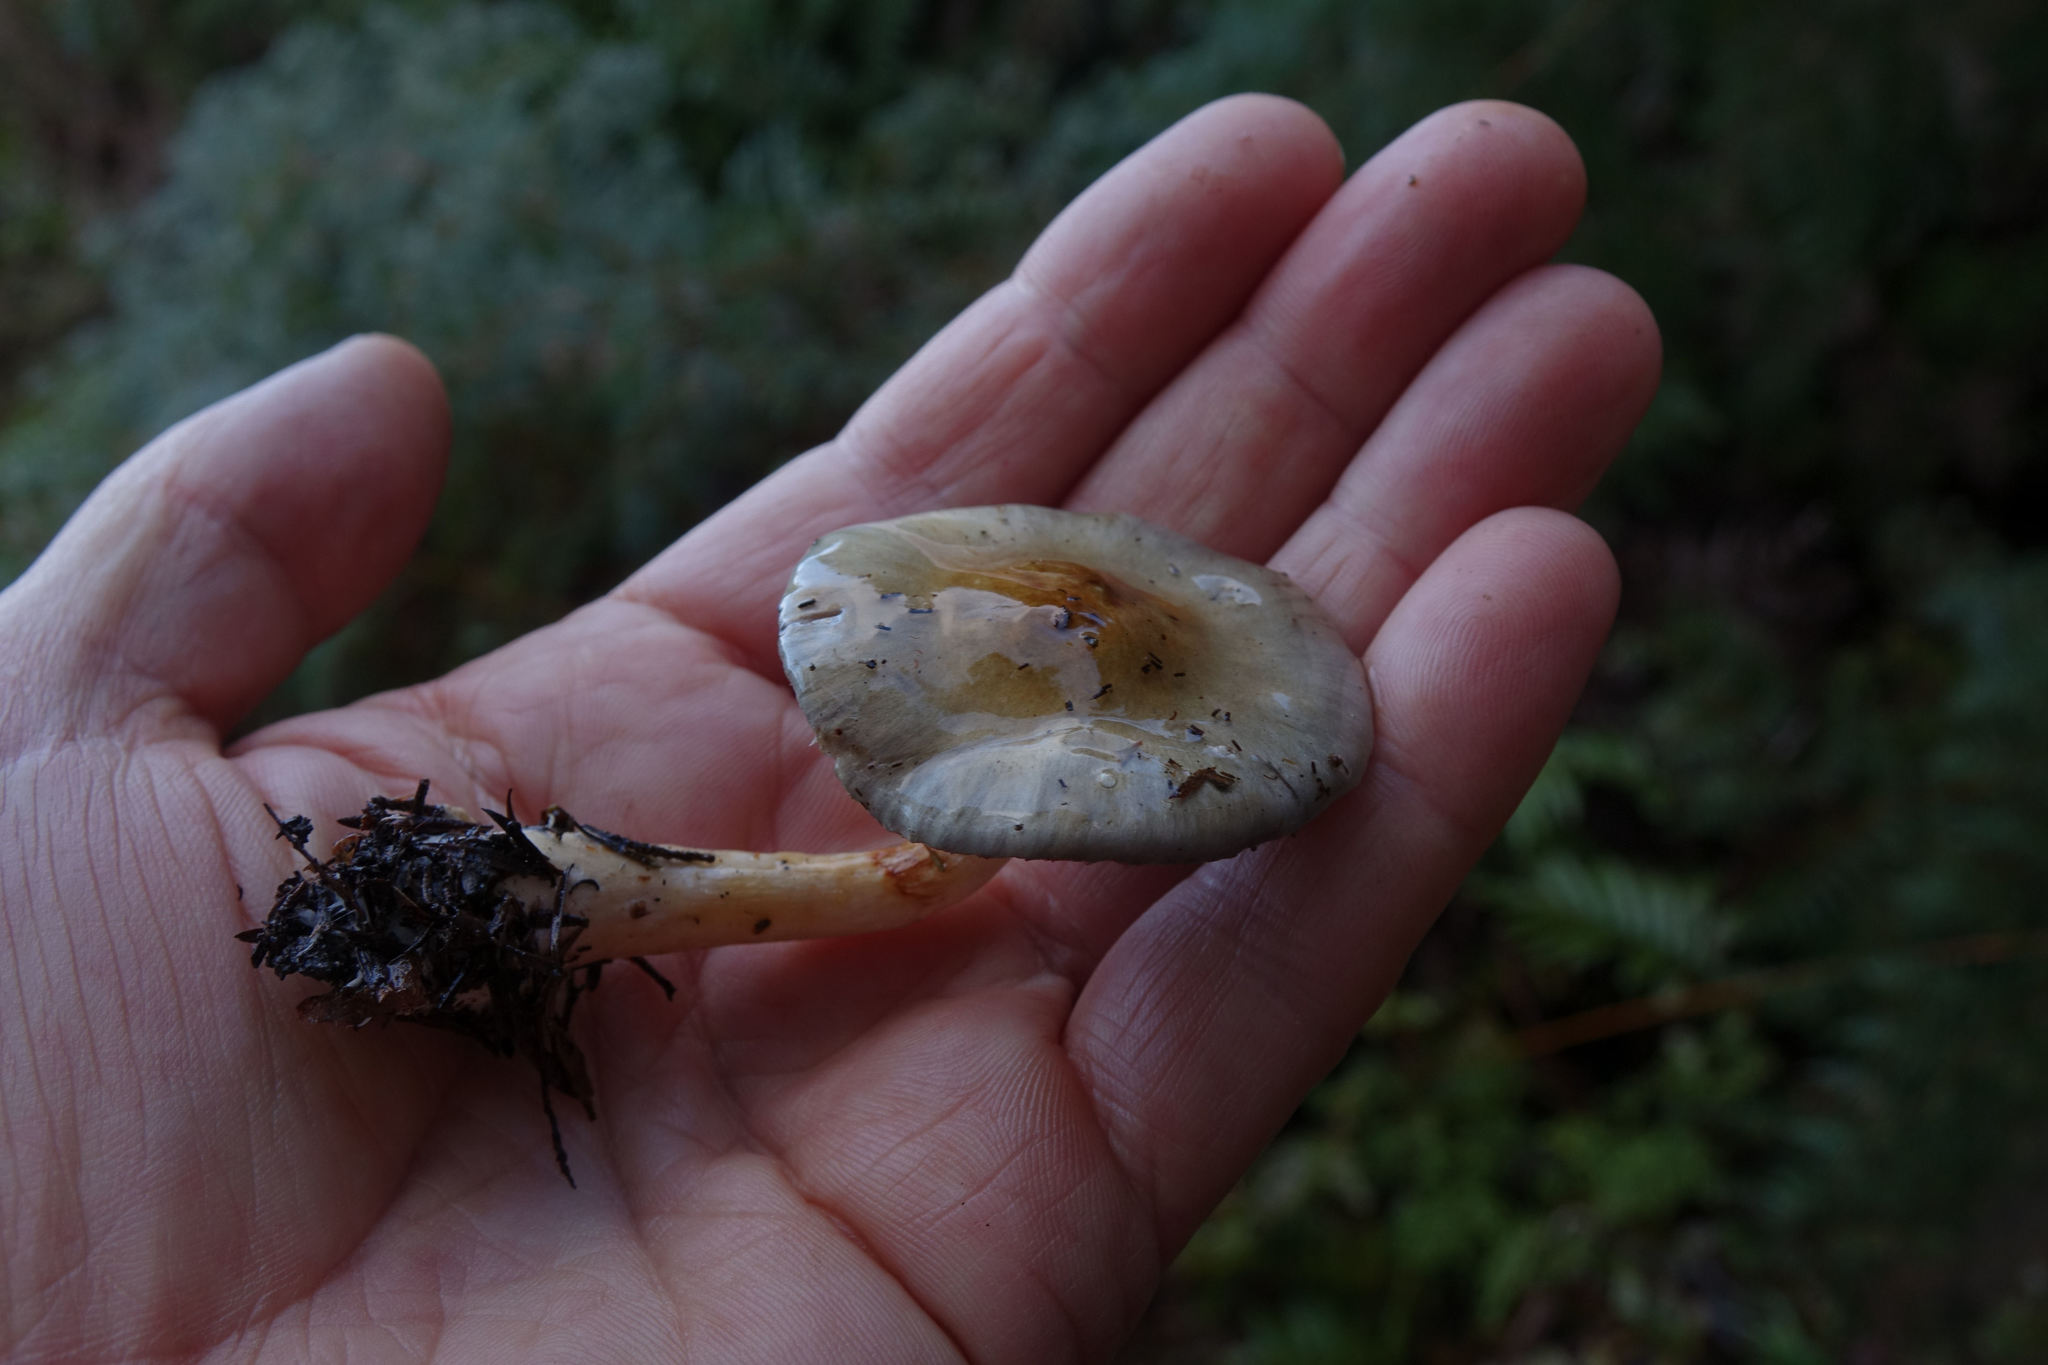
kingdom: Fungi
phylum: Basidiomycota
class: Agaricomycetes
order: Agaricales
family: Cortinariaceae
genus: Cortinarius
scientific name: Cortinarius rotundisporus
